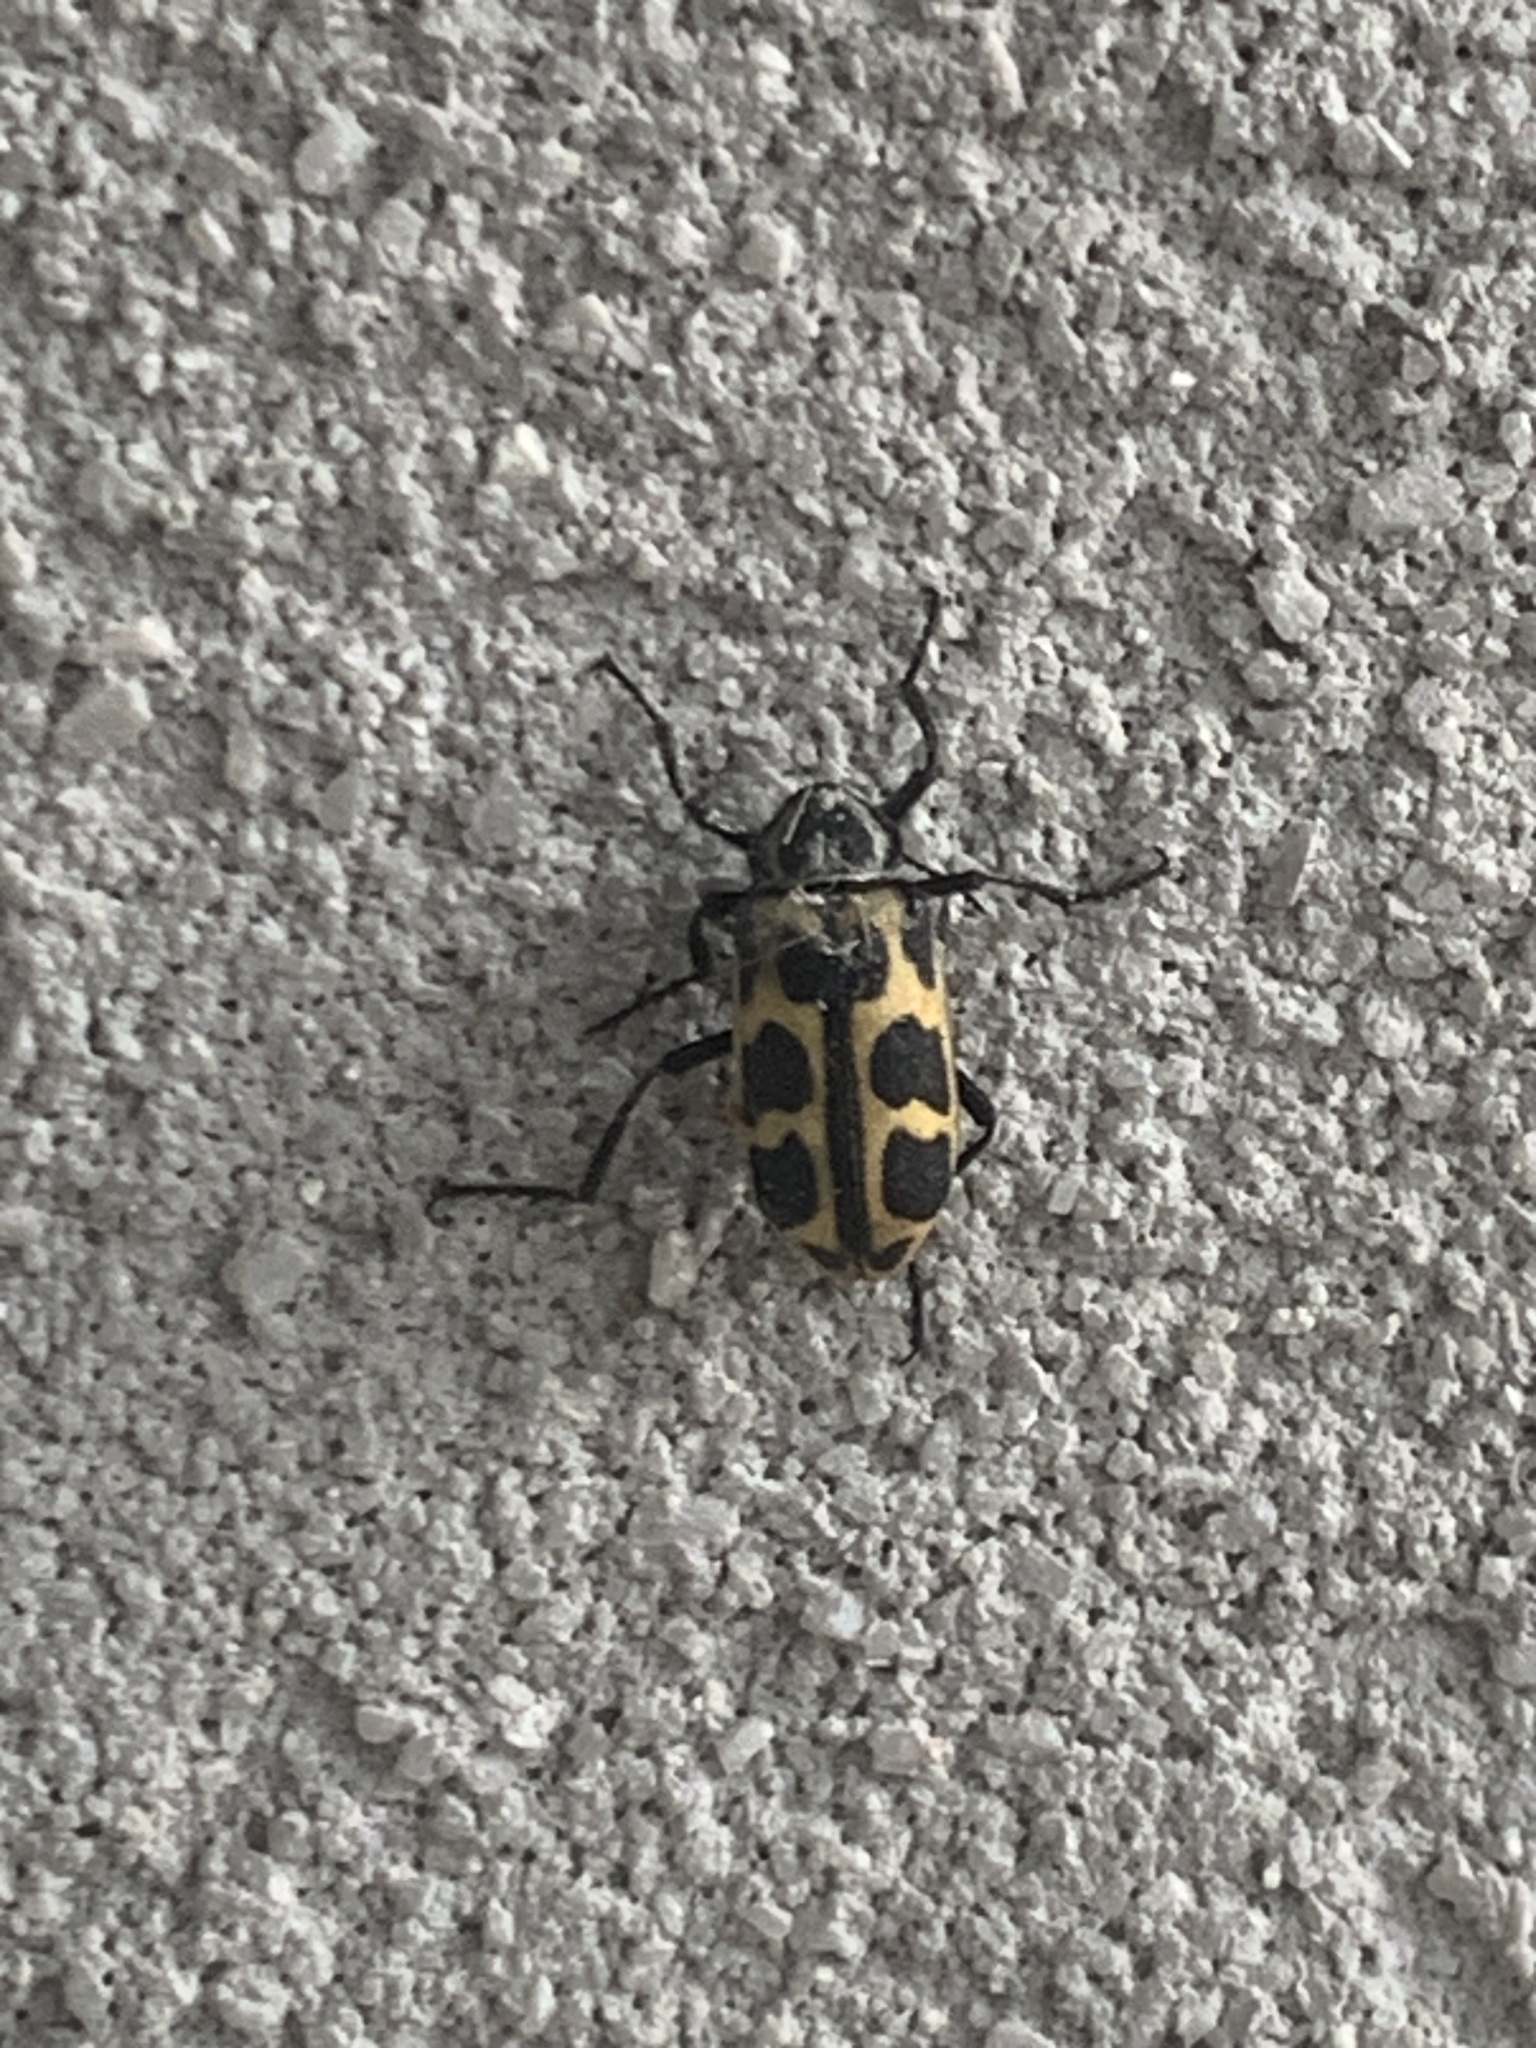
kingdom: Animalia
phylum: Arthropoda
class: Insecta
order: Coleoptera
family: Melyridae
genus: Astylus
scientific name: Astylus atromaculatus
